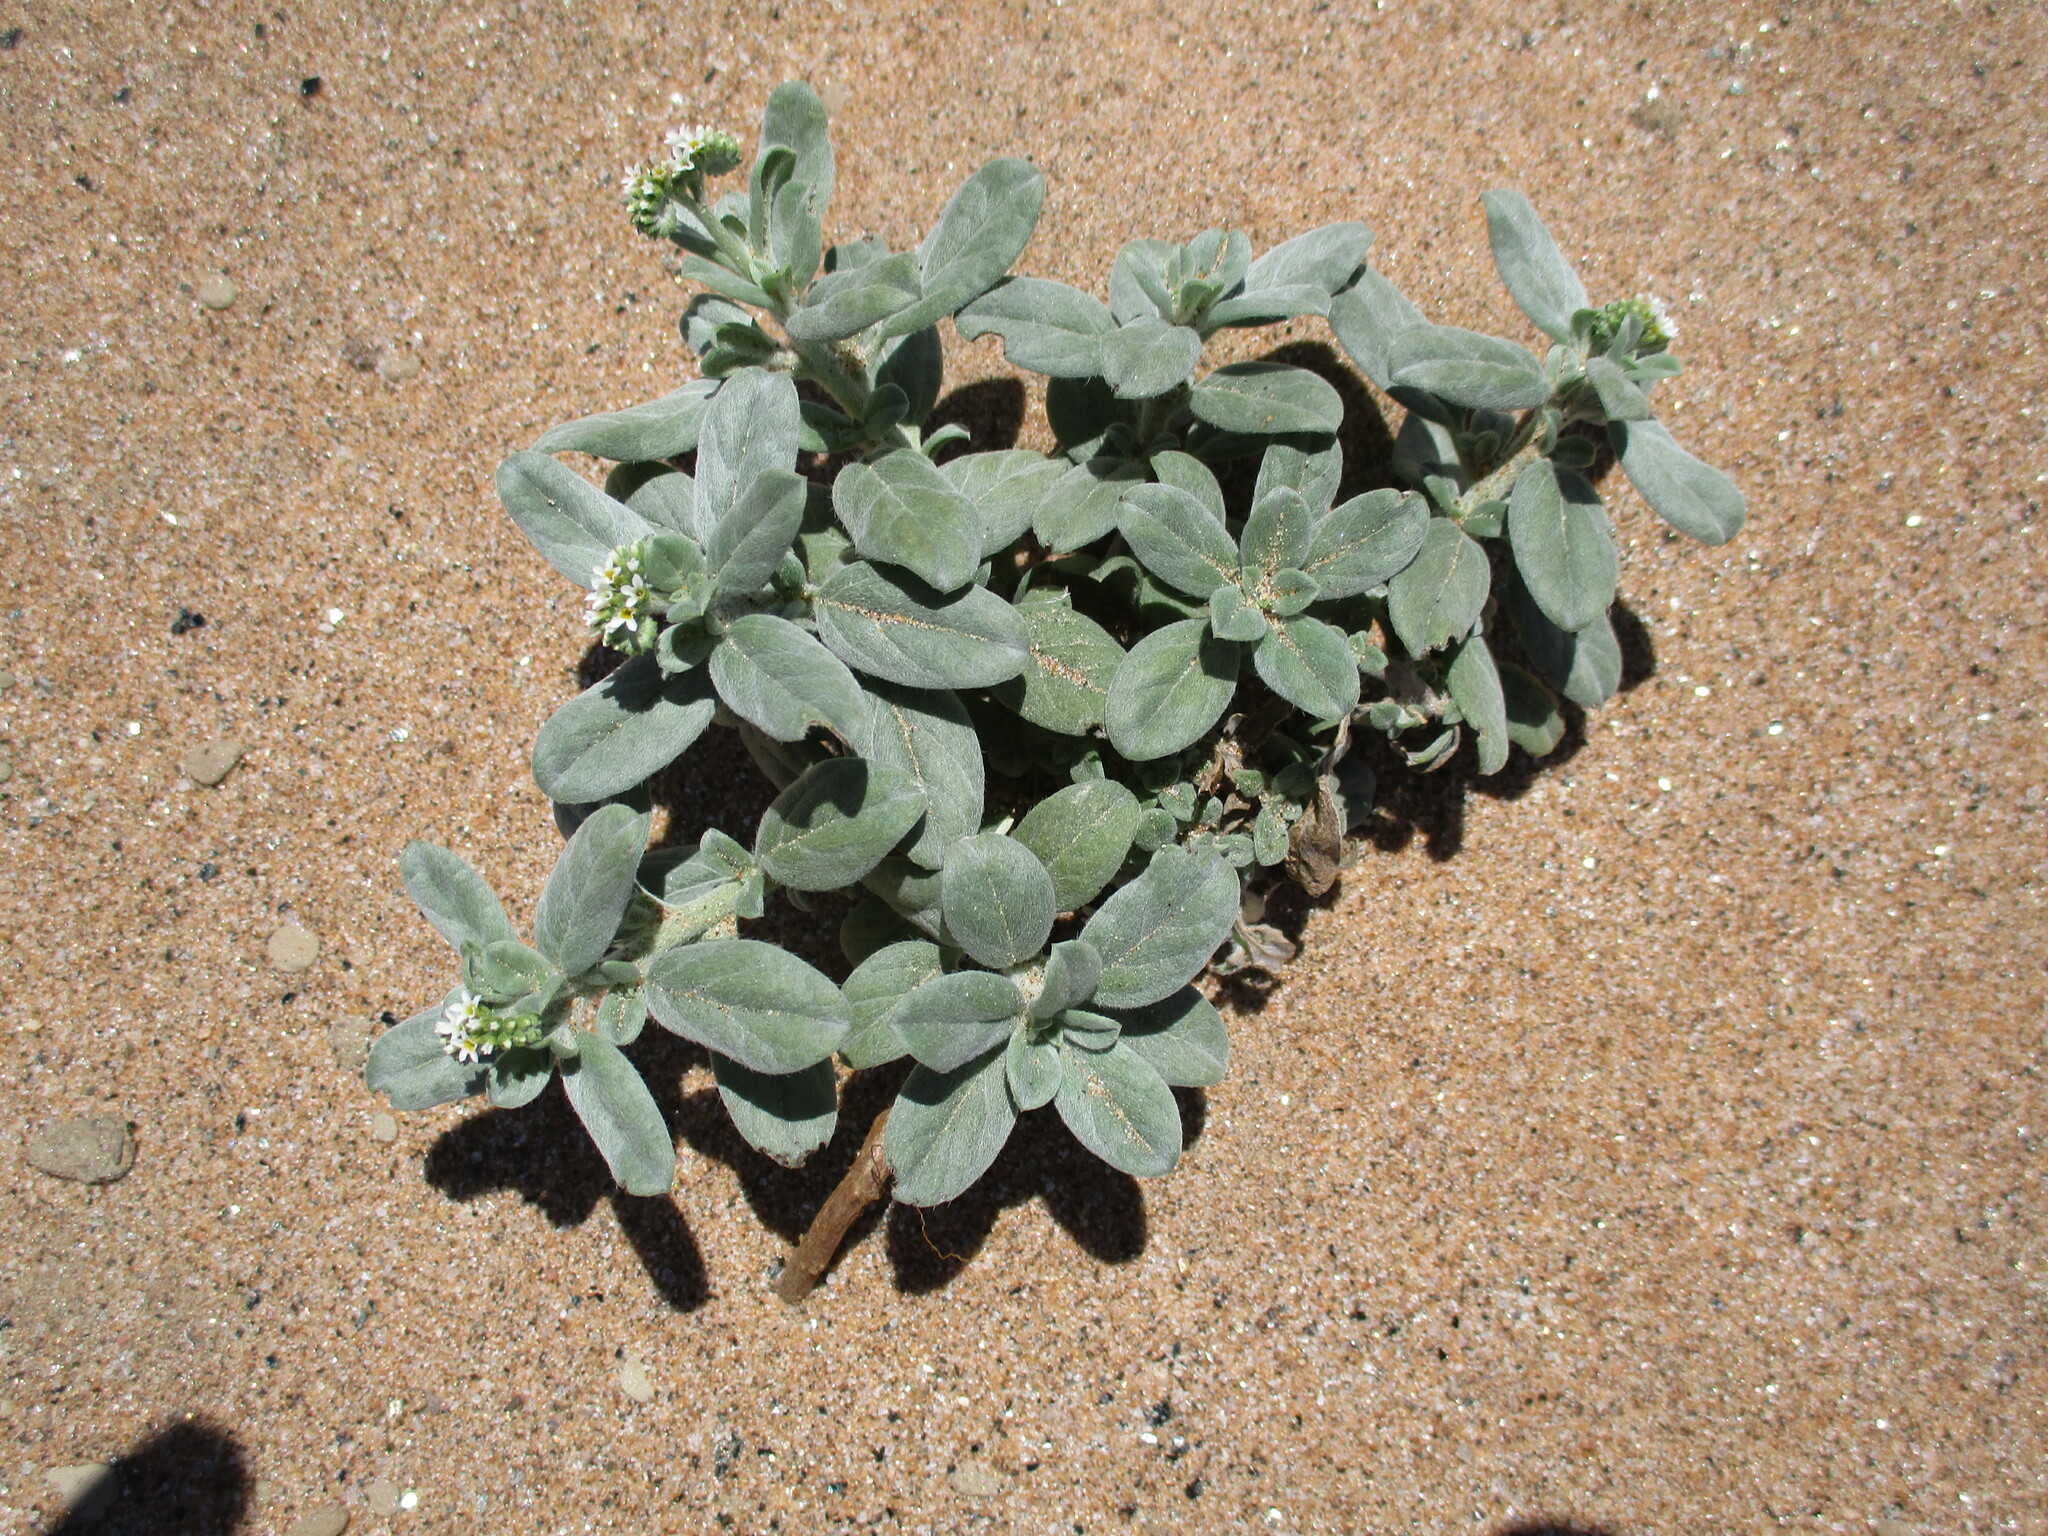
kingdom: Plantae
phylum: Tracheophyta
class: Magnoliopsida
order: Boraginales
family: Heliotropiaceae
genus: Euploca
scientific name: Euploca ovalifolia
